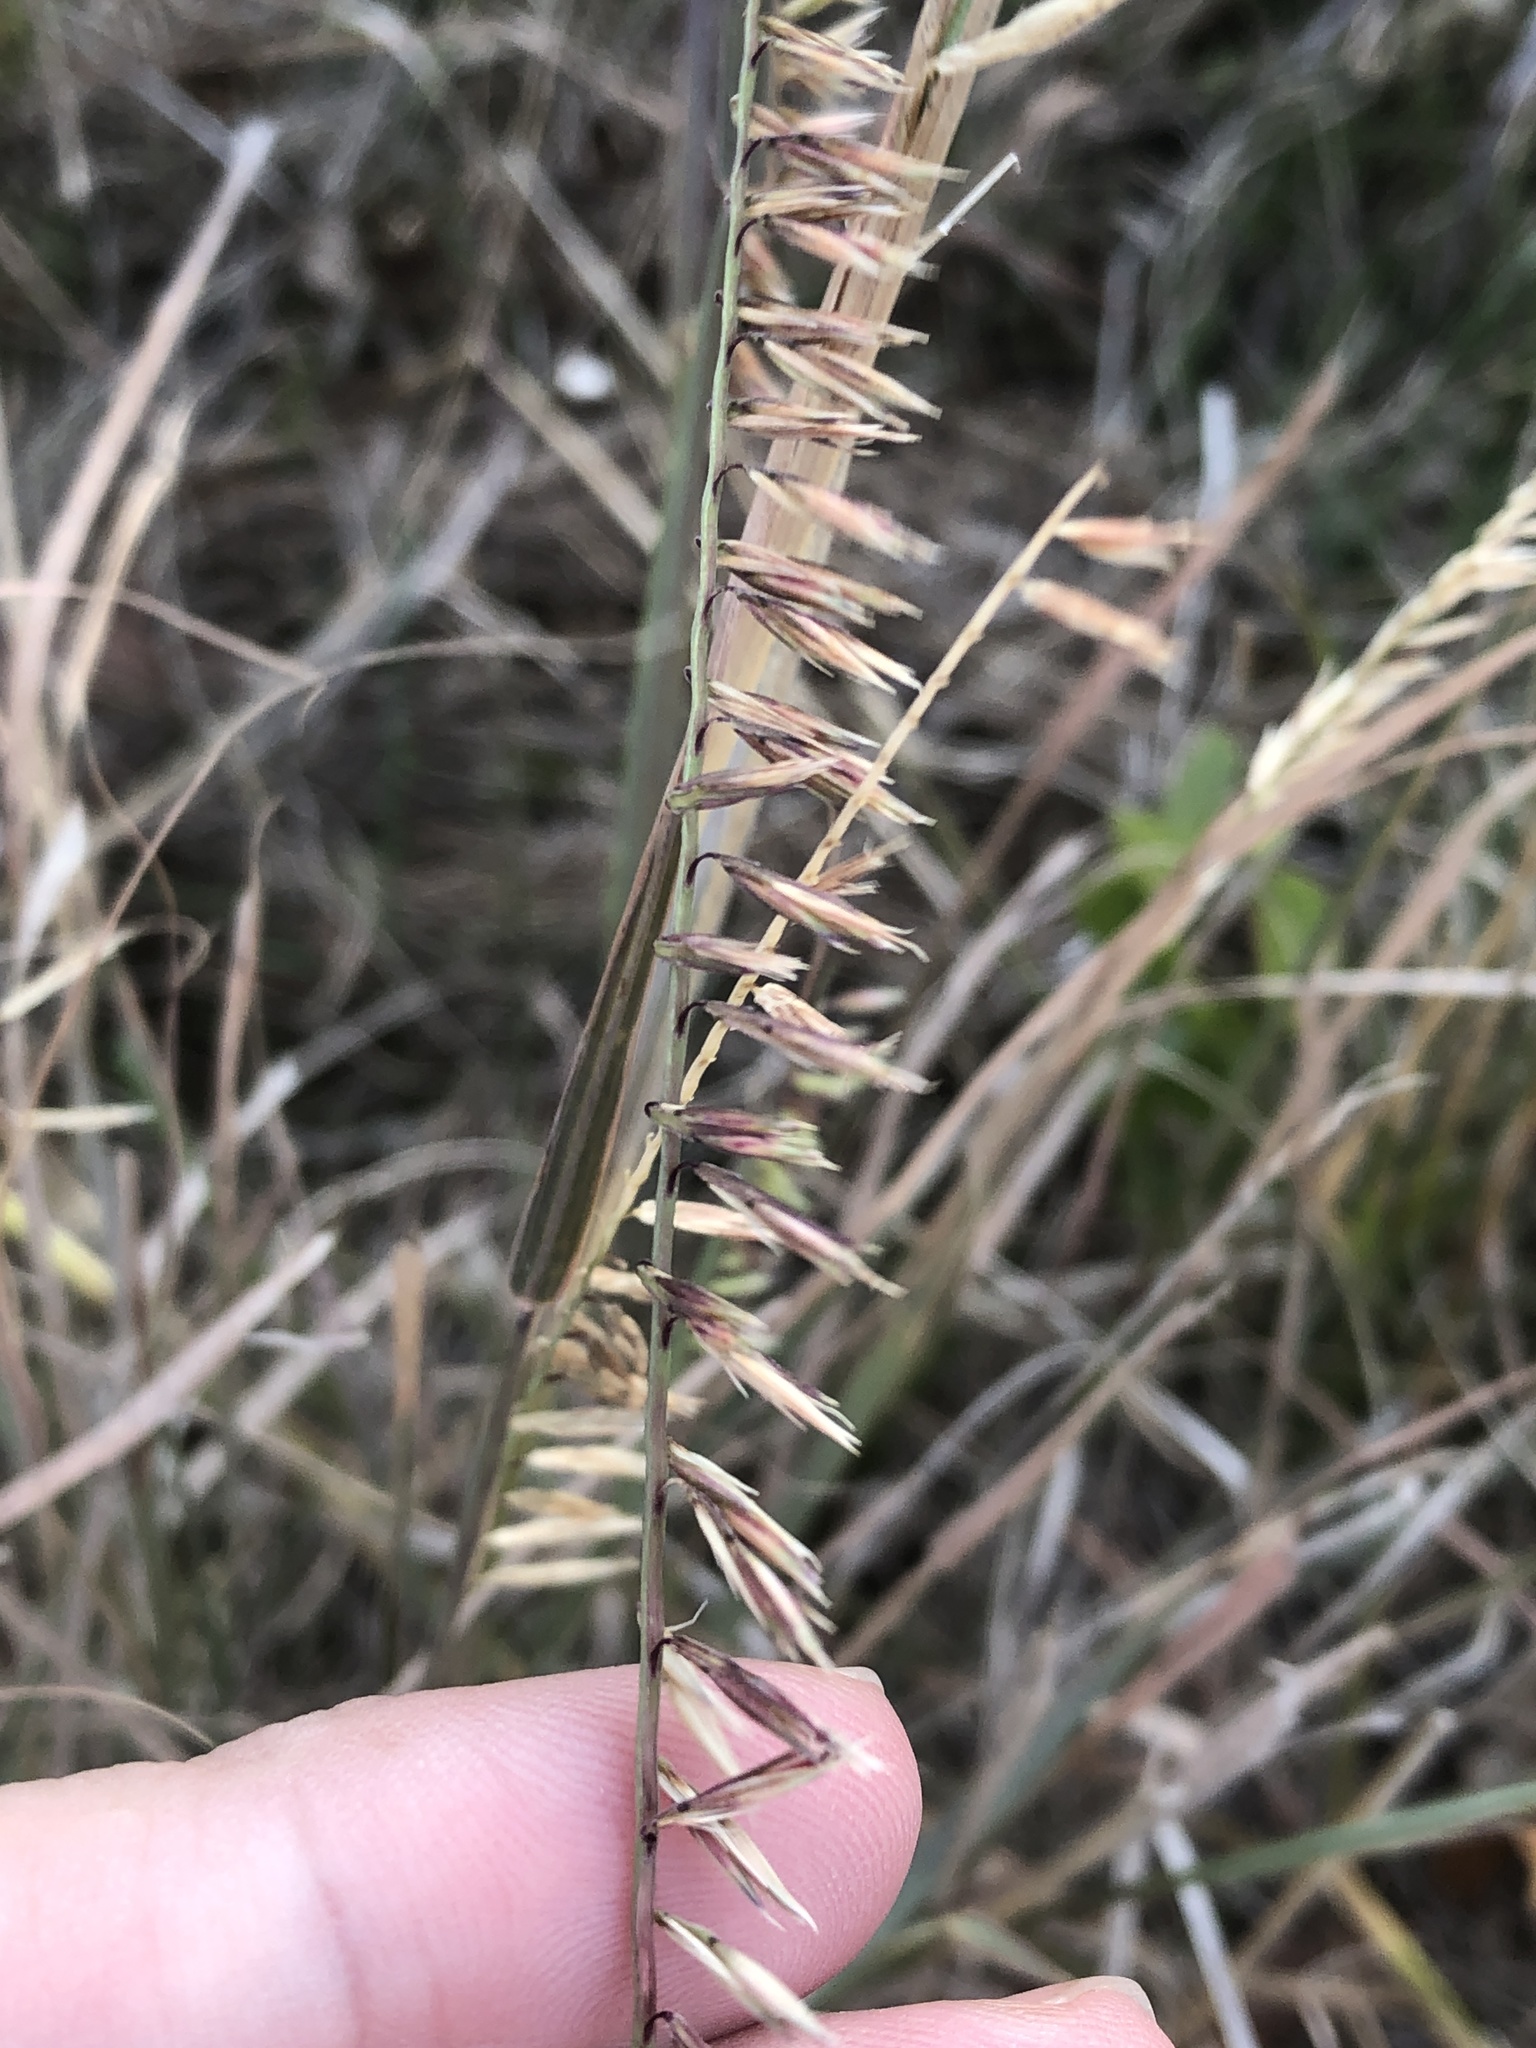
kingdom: Plantae
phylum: Tracheophyta
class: Liliopsida
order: Poales
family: Poaceae
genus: Bouteloua
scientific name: Bouteloua curtipendula
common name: Side-oats grama
